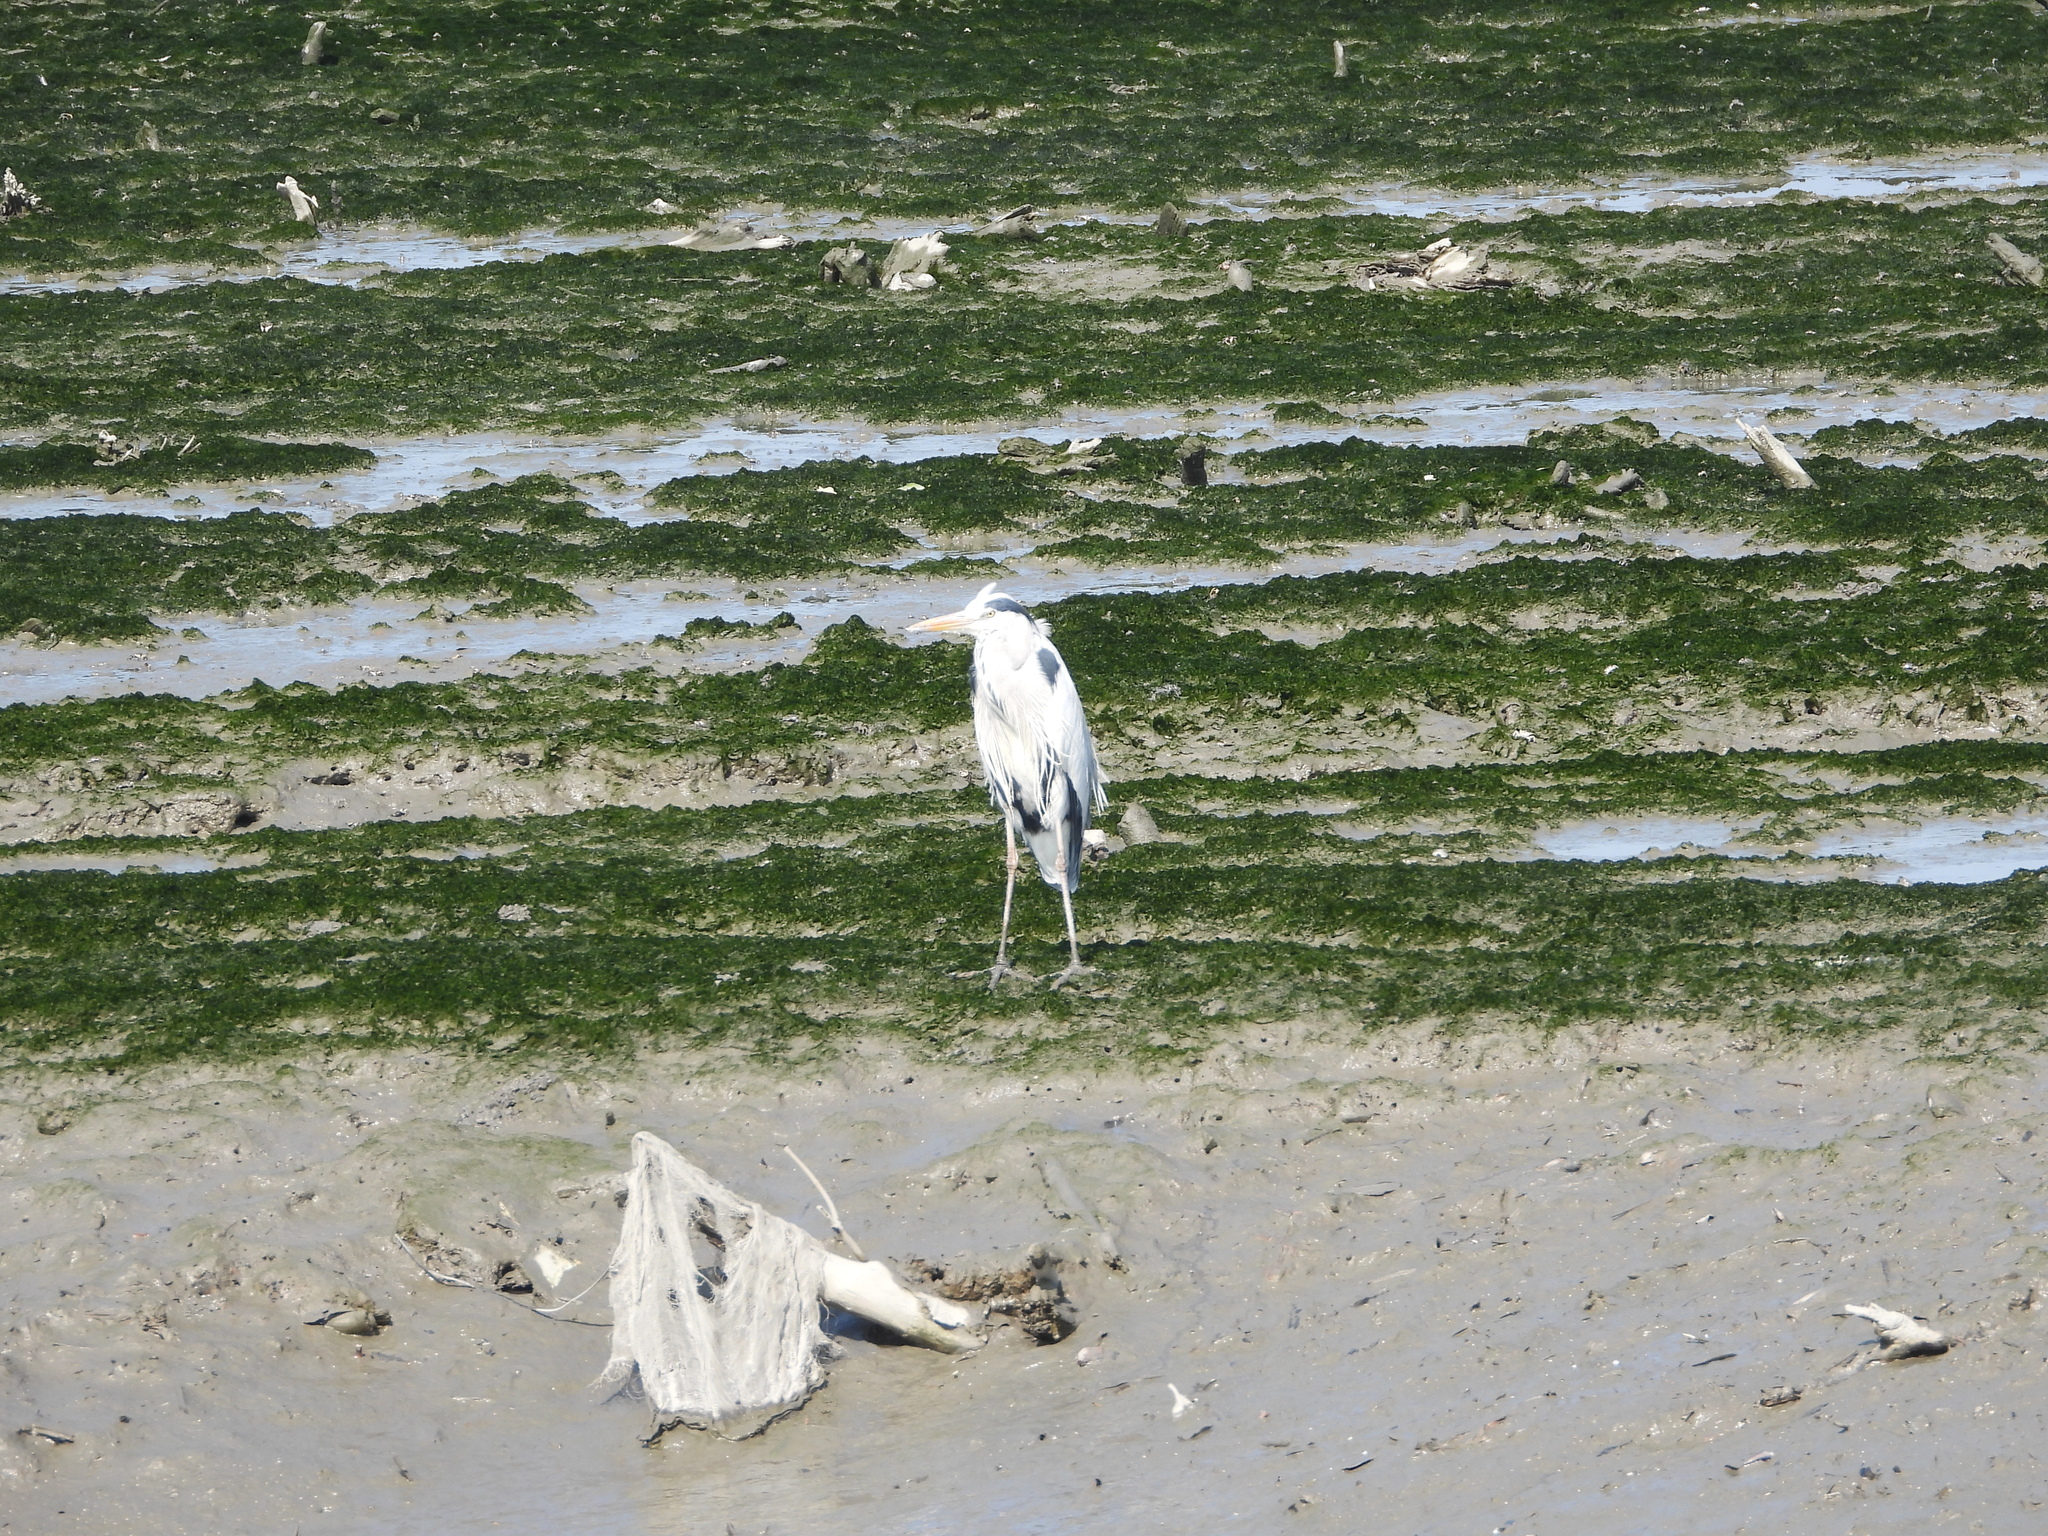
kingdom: Animalia
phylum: Chordata
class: Aves
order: Pelecaniformes
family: Ardeidae
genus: Ardea
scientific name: Ardea cinerea
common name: Grey heron
